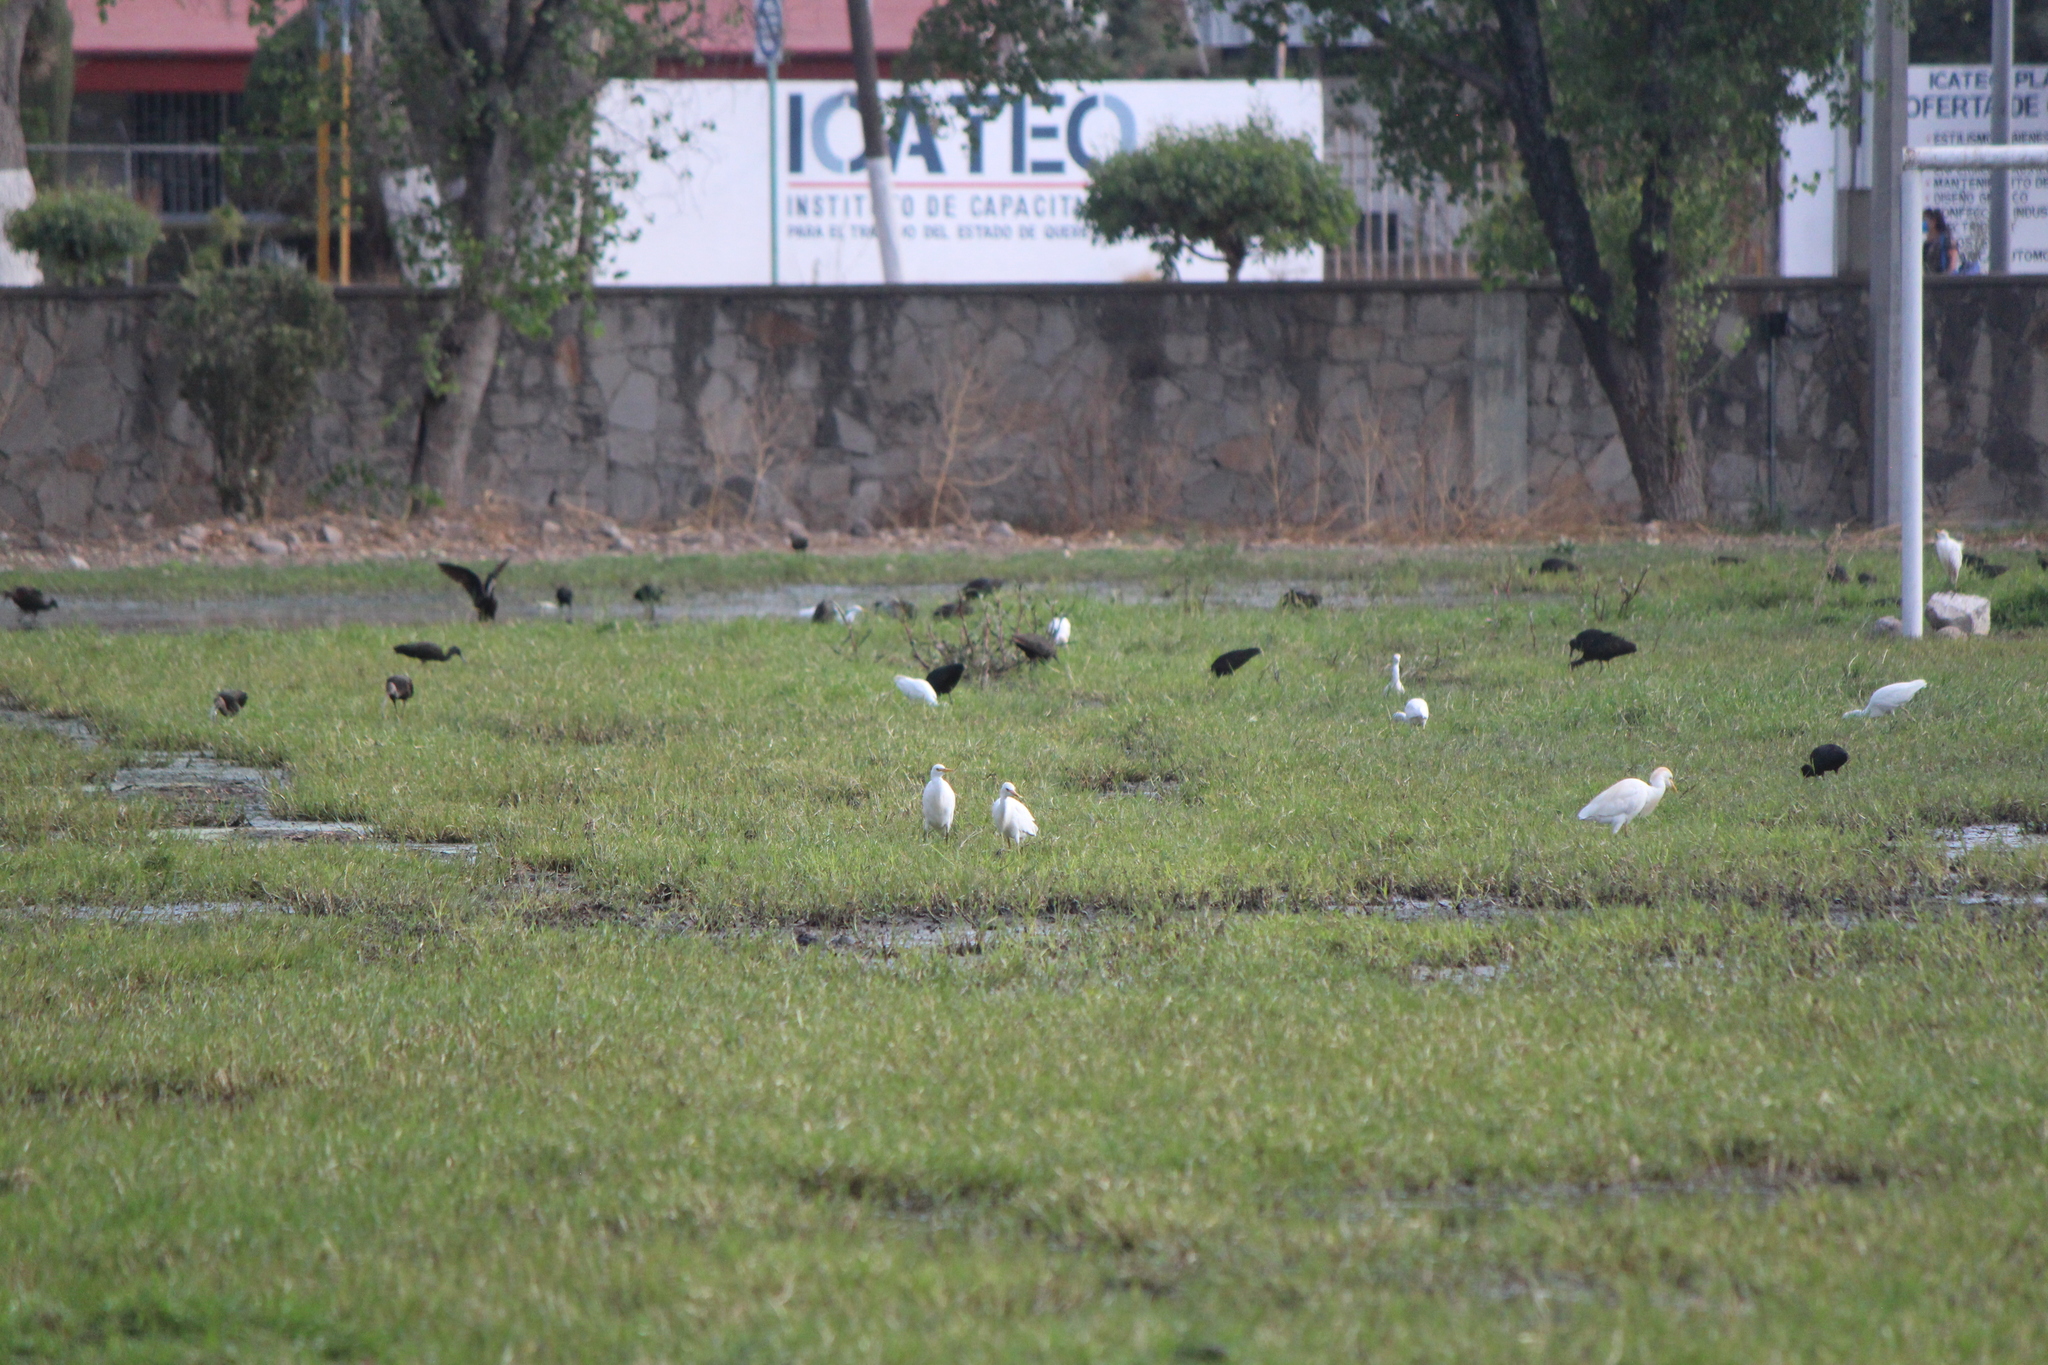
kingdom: Animalia
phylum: Chordata
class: Aves
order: Pelecaniformes
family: Ardeidae
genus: Bubulcus
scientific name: Bubulcus ibis
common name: Cattle egret
